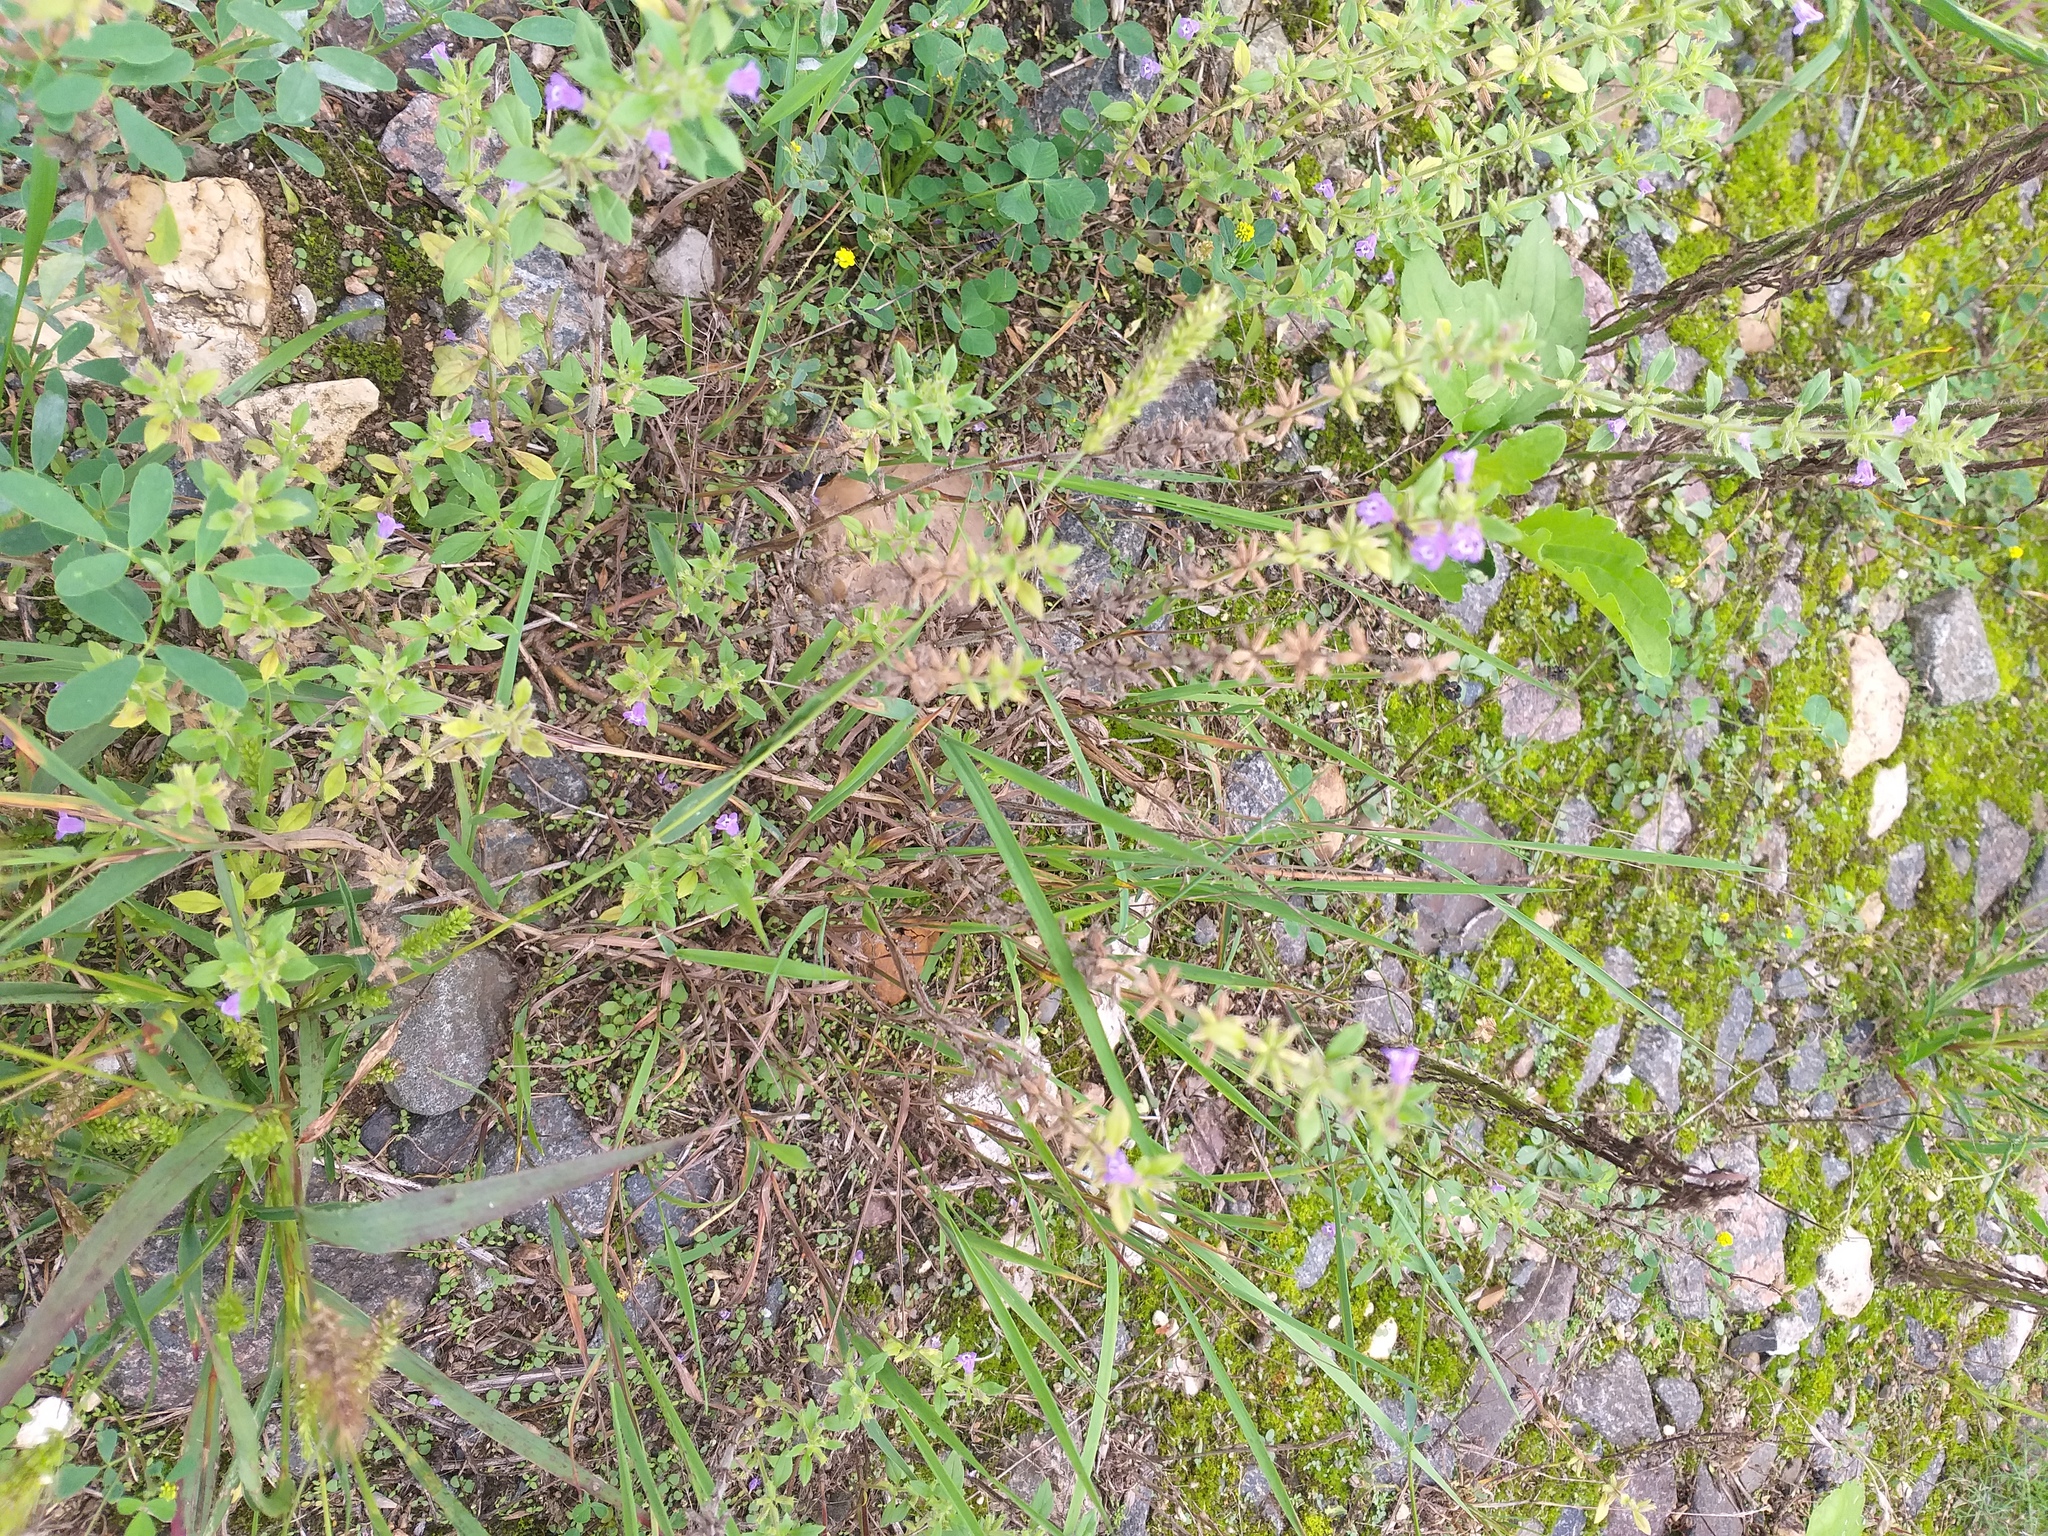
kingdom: Plantae
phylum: Tracheophyta
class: Magnoliopsida
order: Lamiales
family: Lamiaceae
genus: Clinopodium
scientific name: Clinopodium acinos
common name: Basil thyme
